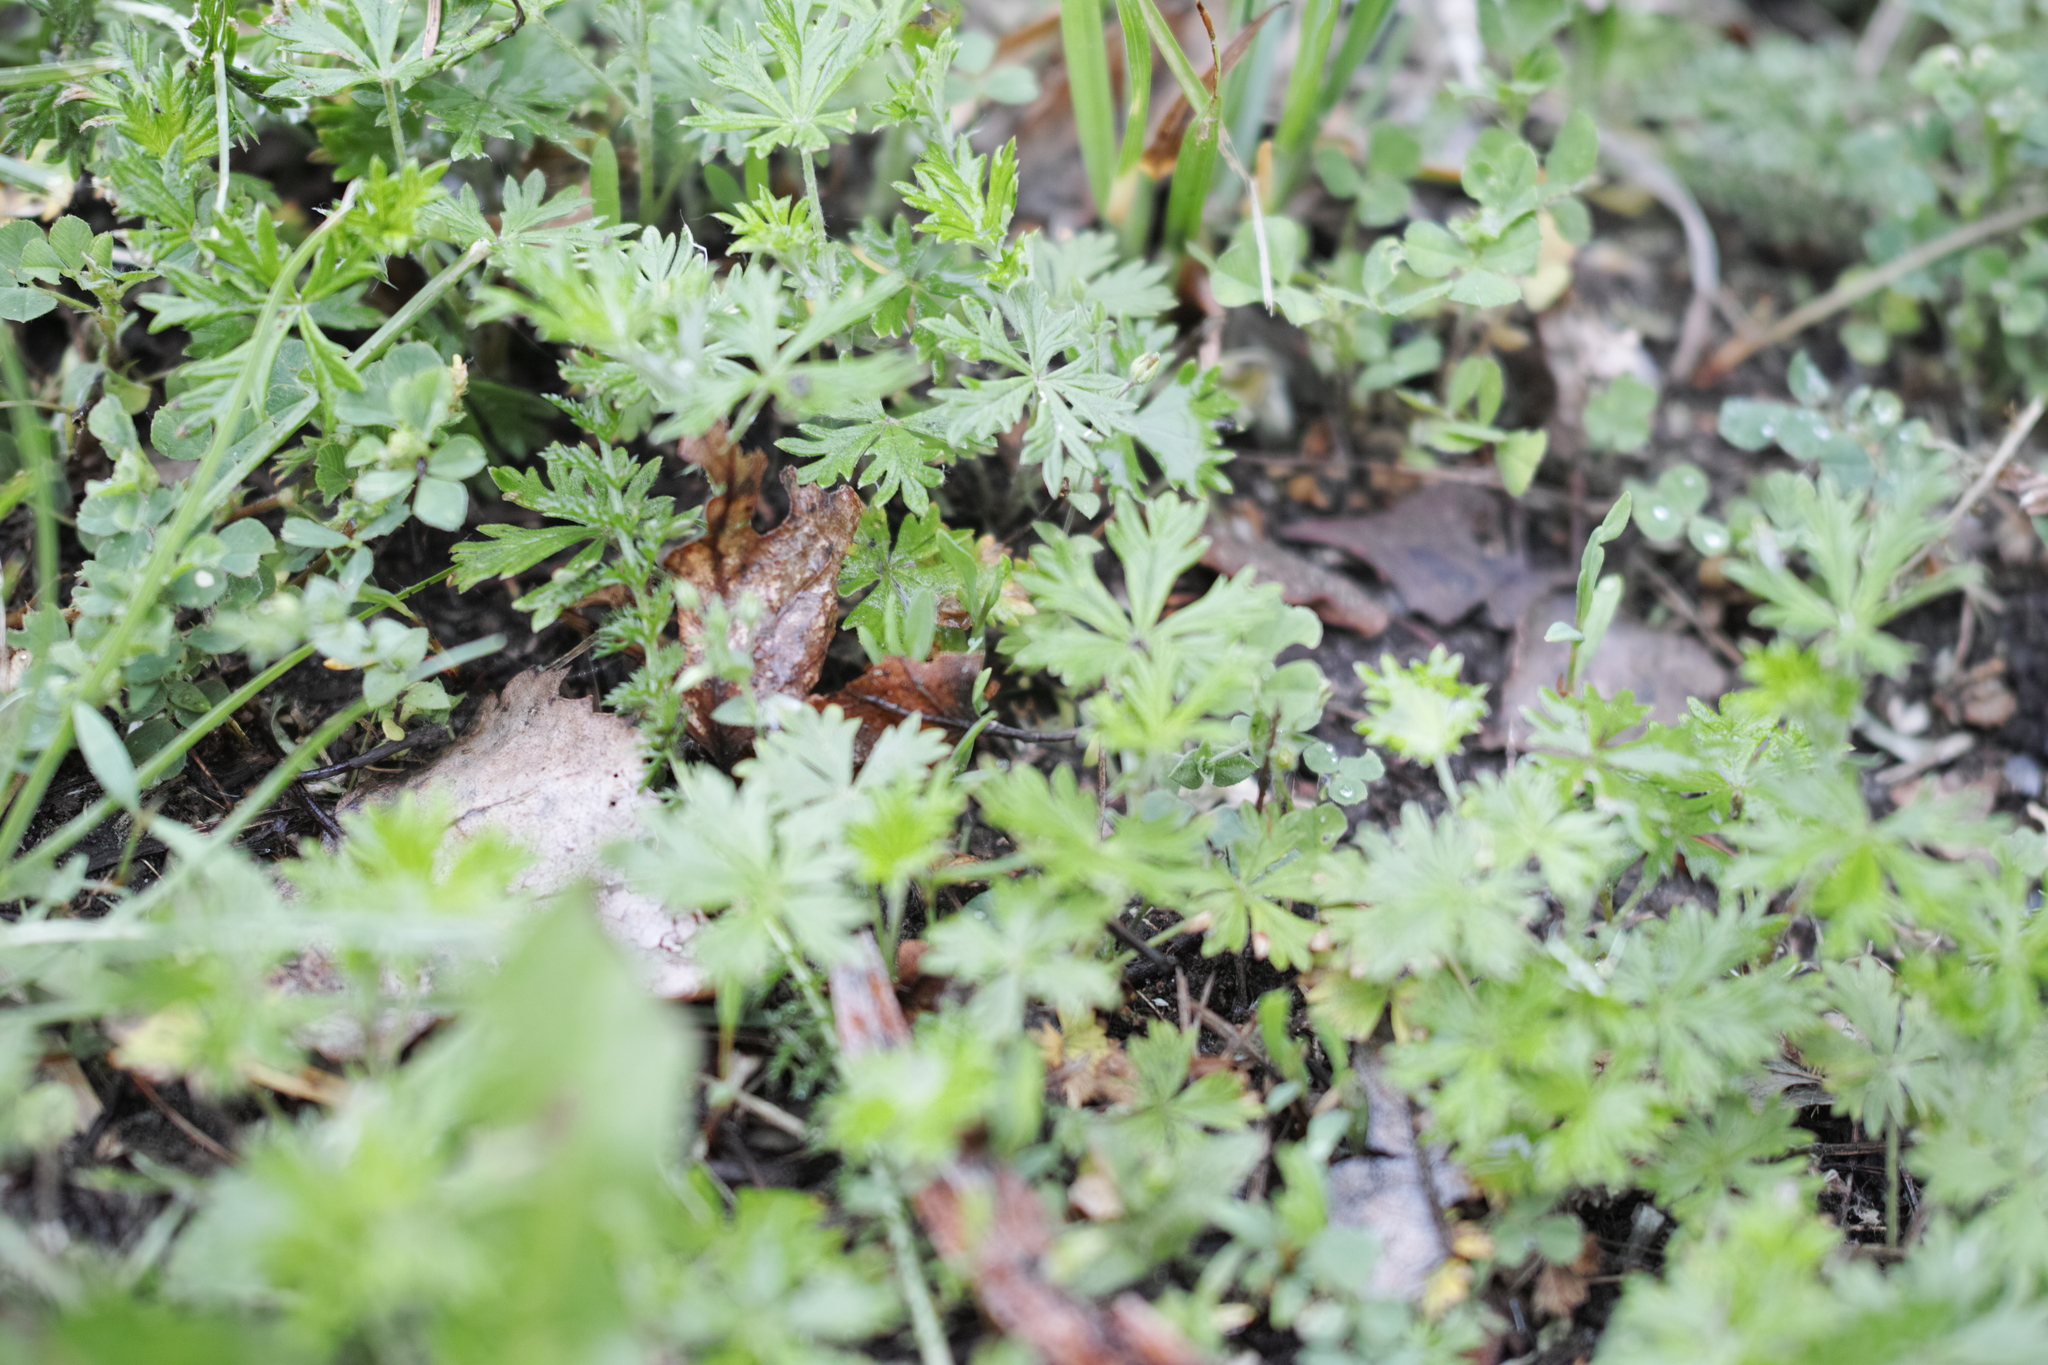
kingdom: Plantae
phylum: Tracheophyta
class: Magnoliopsida
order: Rosales
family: Rosaceae
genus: Potentilla
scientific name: Potentilla argentea
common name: Hoary cinquefoil
